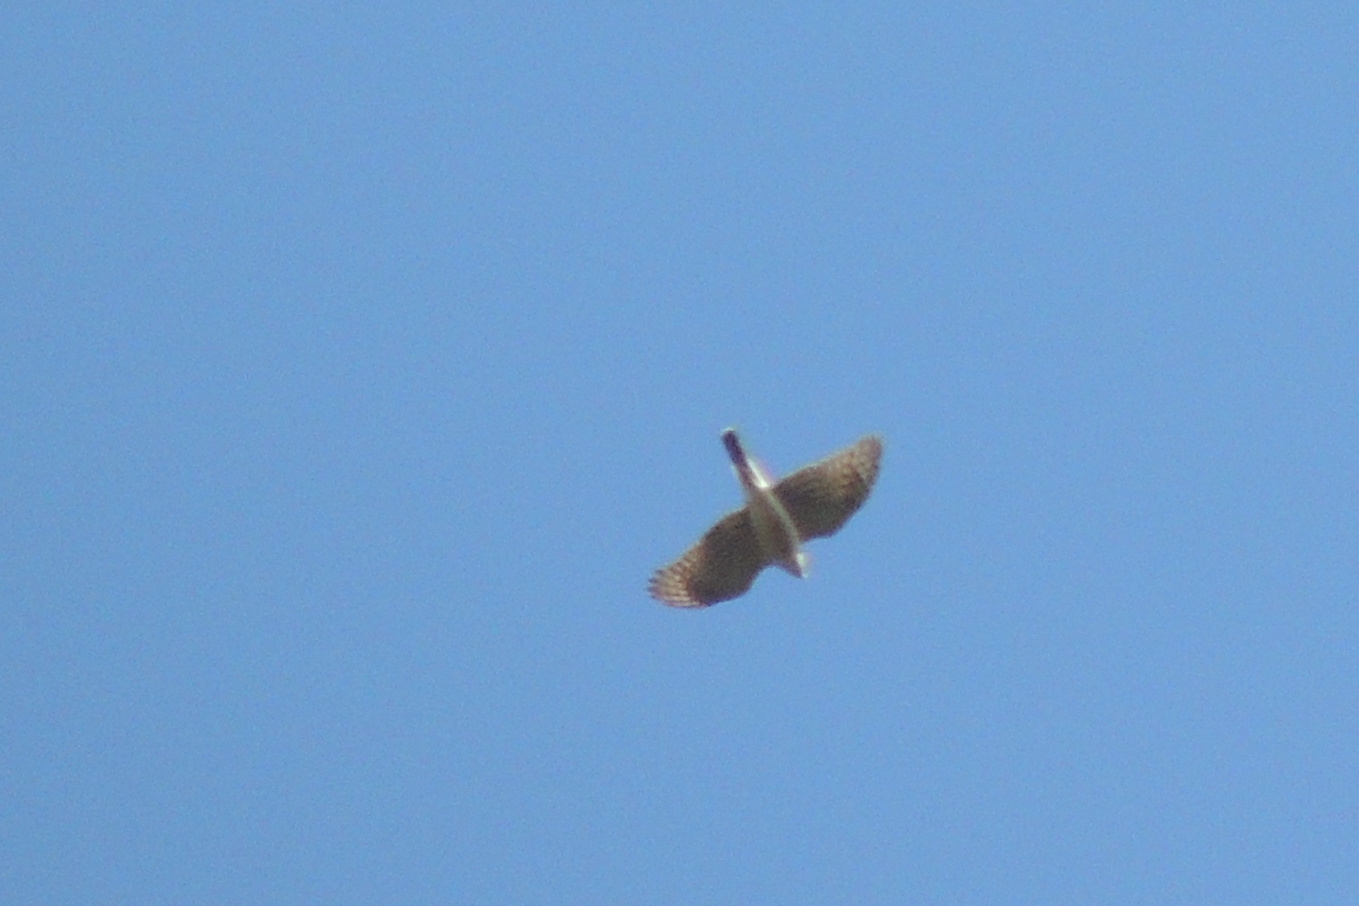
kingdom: Animalia
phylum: Chordata
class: Aves
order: Accipitriformes
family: Accipitridae
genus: Accipiter
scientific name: Accipiter striatus
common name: Sharp-shinned hawk
